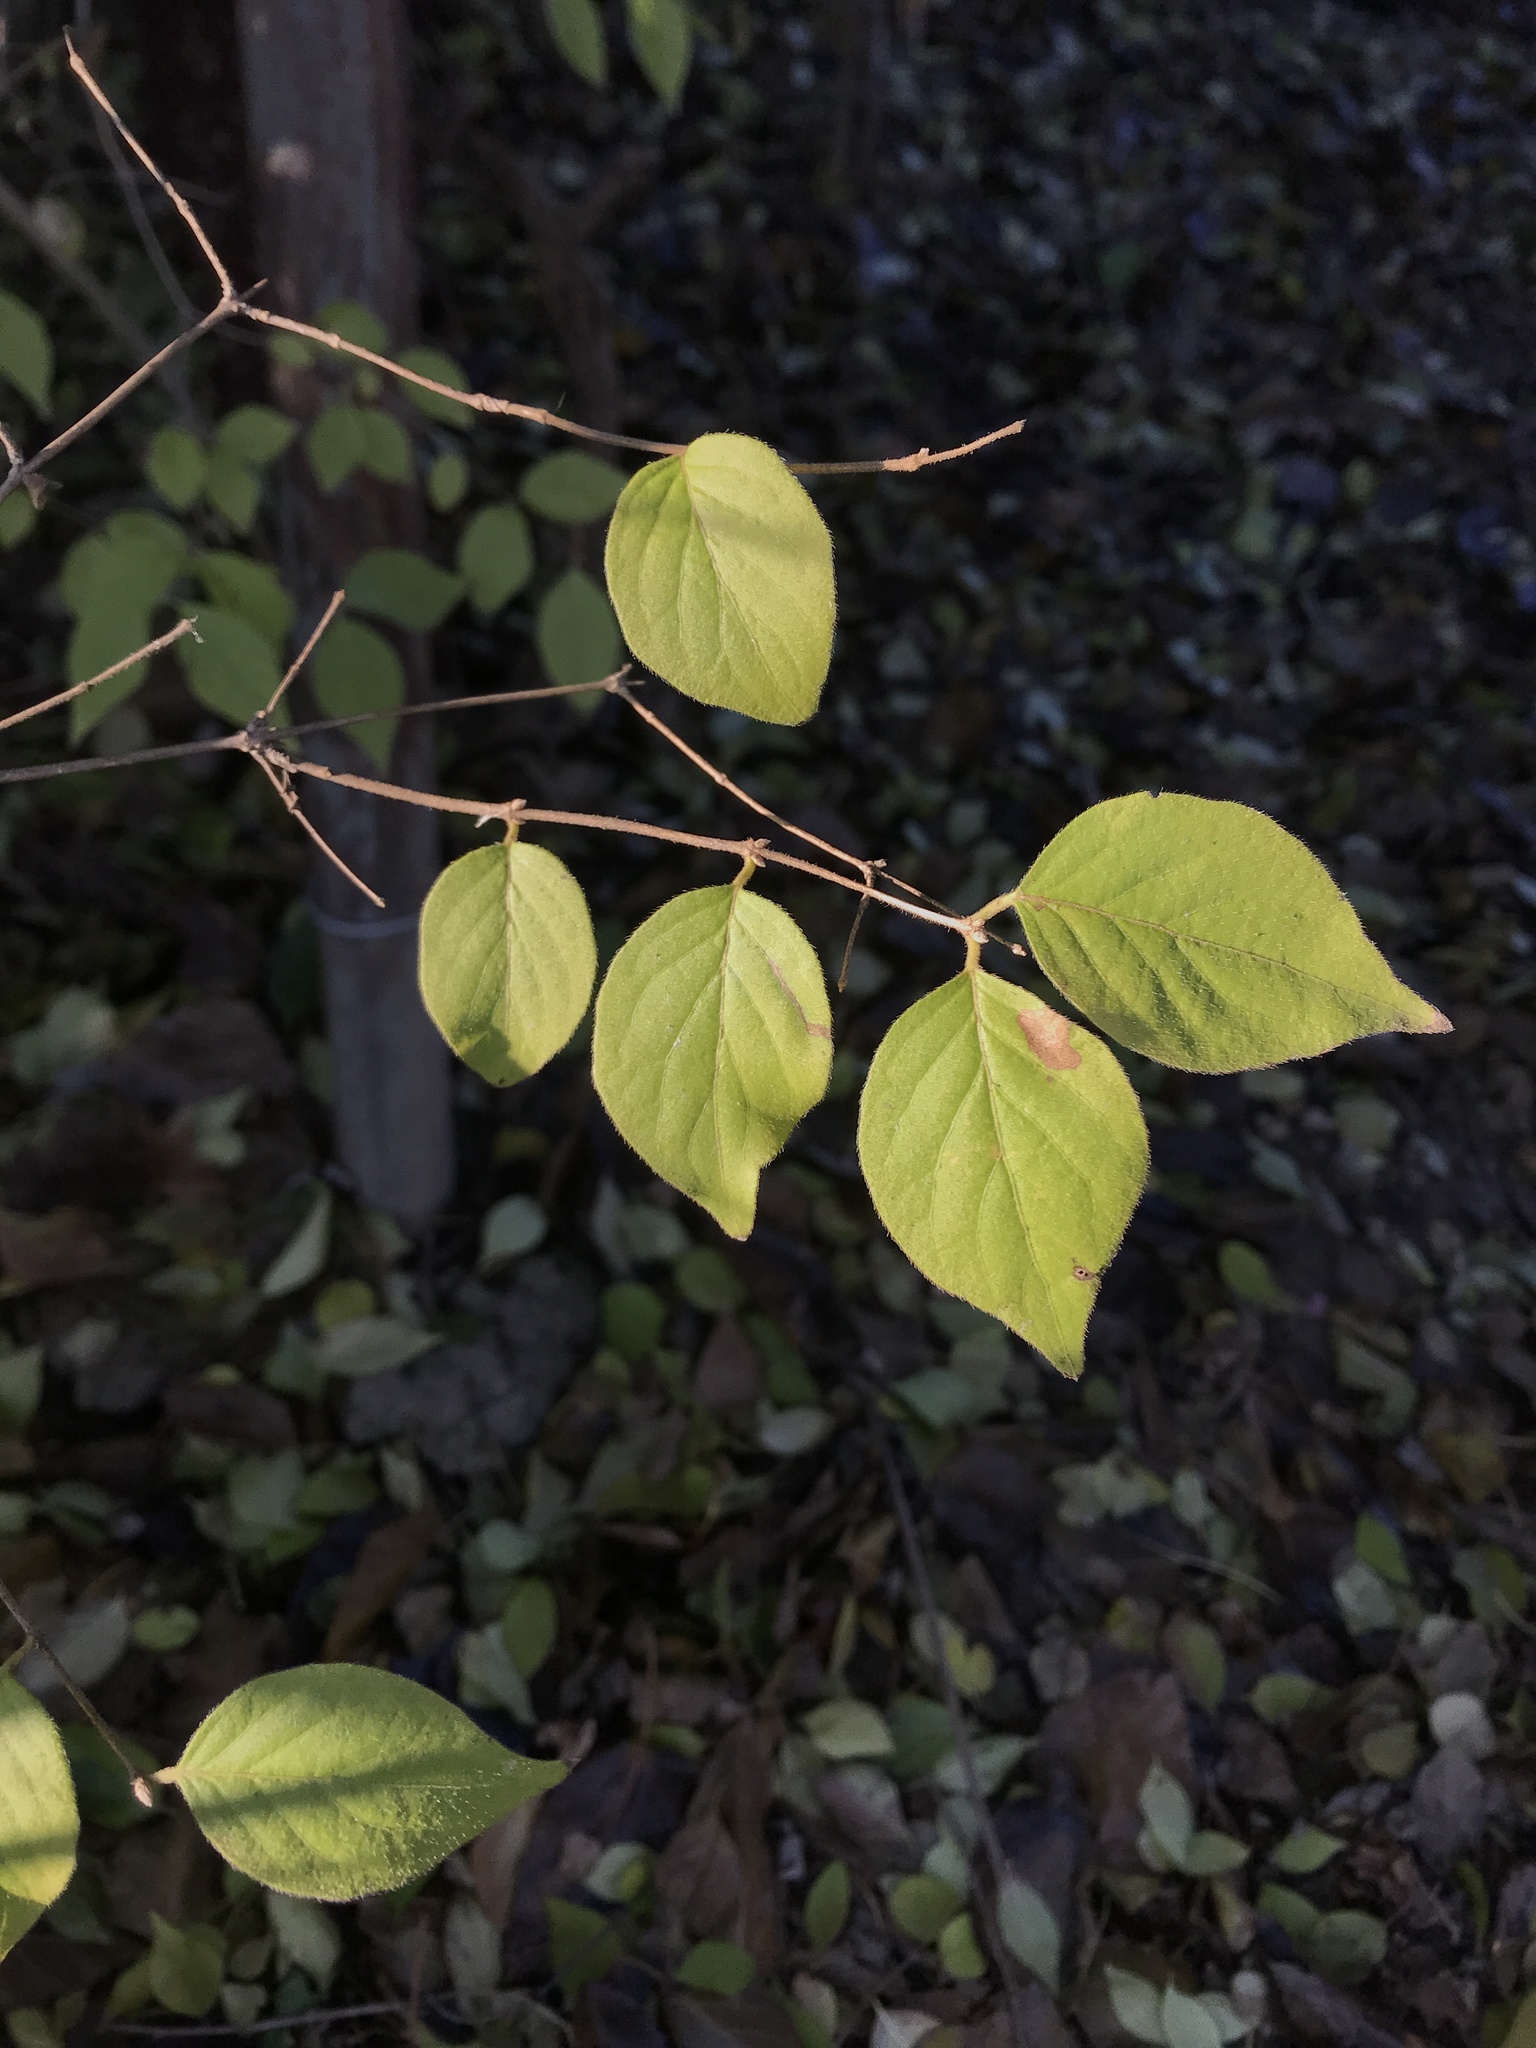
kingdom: Plantae
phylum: Tracheophyta
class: Magnoliopsida
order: Dipsacales
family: Caprifoliaceae
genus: Lonicera
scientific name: Lonicera maackii
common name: Amur honeysuckle
